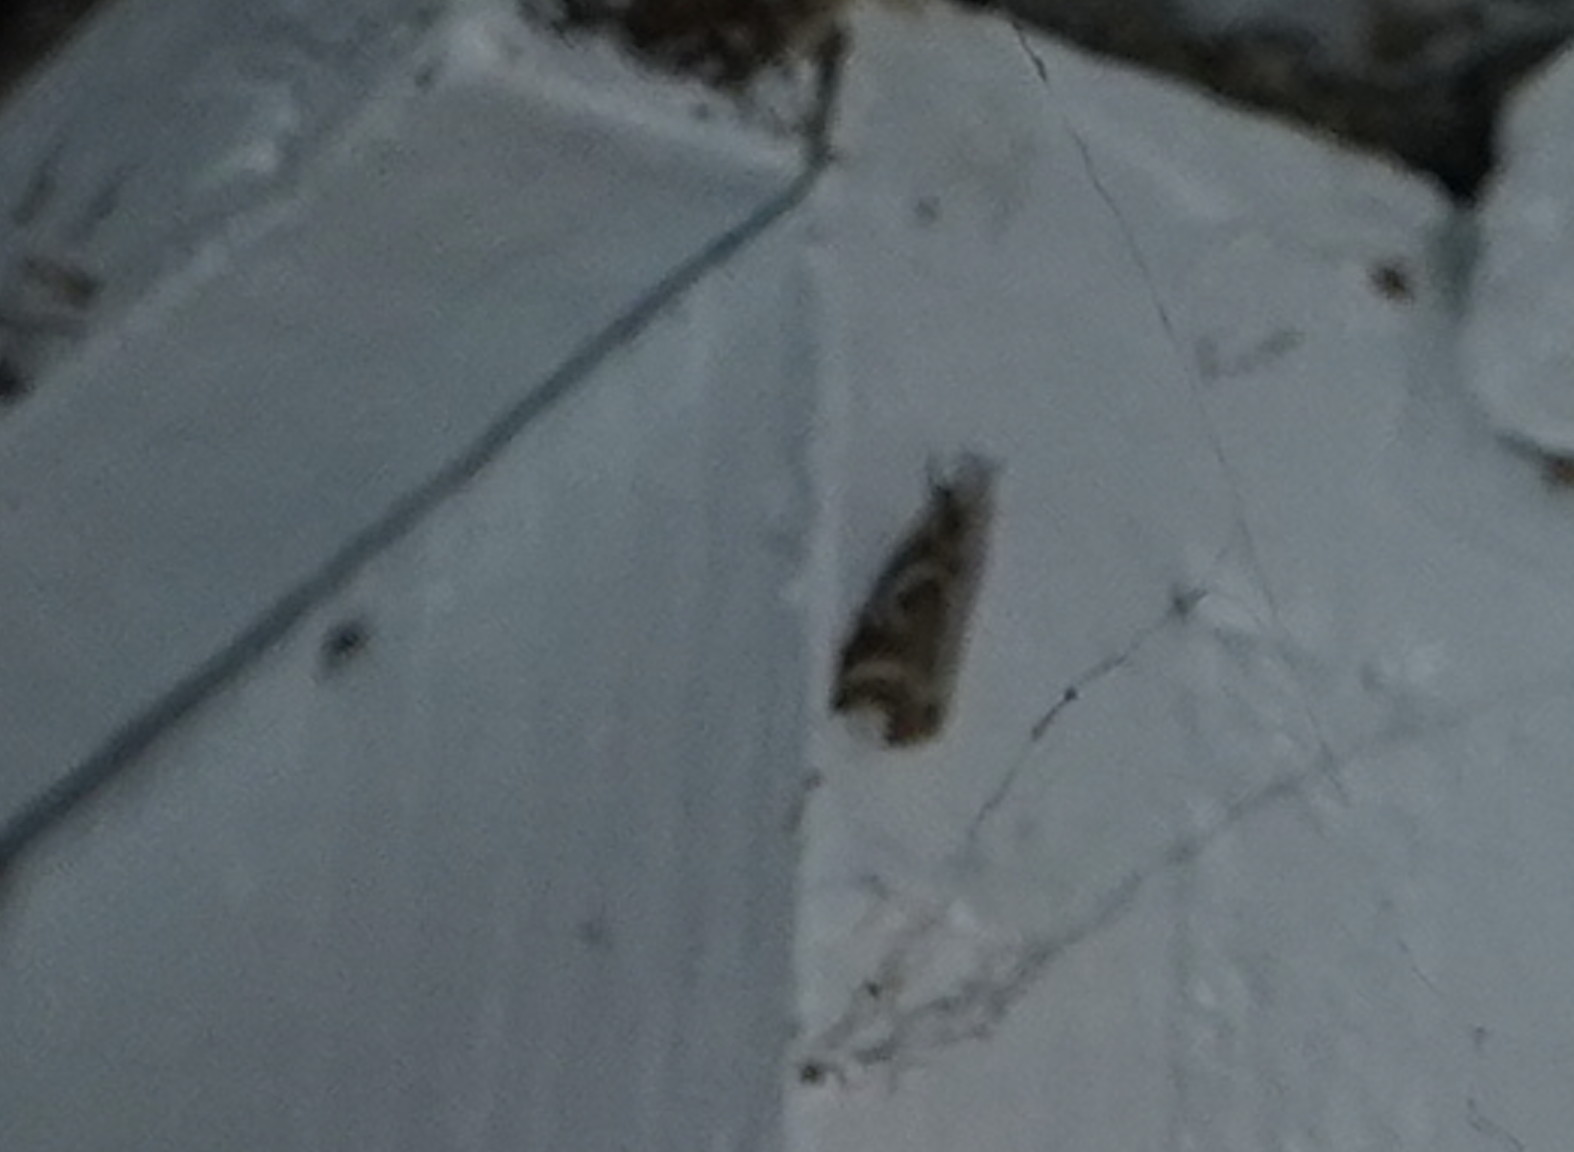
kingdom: Animalia
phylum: Arthropoda
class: Insecta
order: Lepidoptera
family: Crambidae
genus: Microcrambus
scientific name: Microcrambus elegans
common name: Elegant grass-veneer
